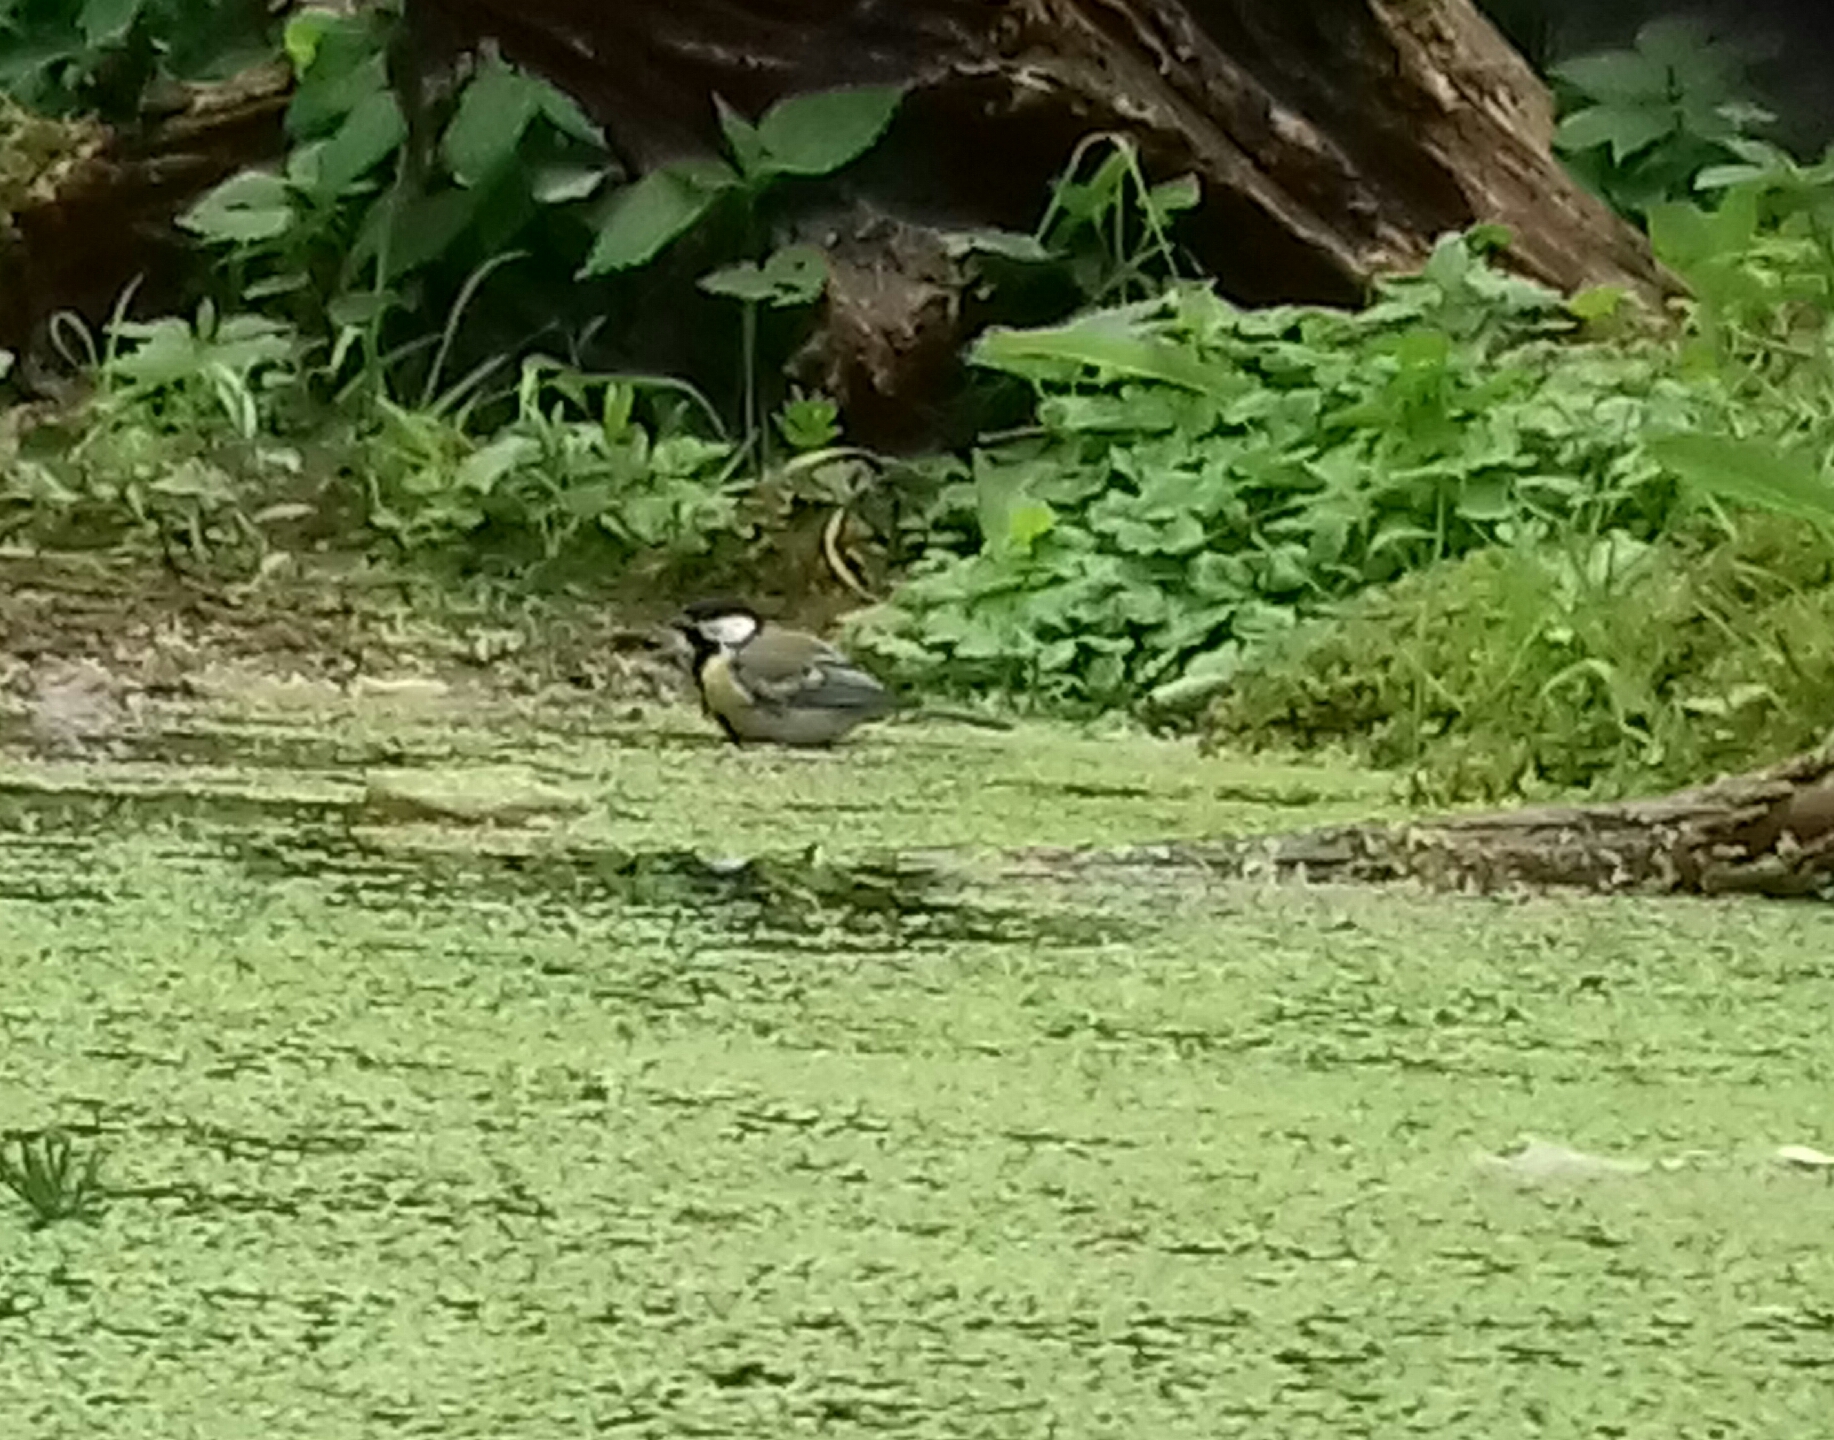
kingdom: Animalia
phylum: Chordata
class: Aves
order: Passeriformes
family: Paridae
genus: Parus
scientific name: Parus major
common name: Great tit
